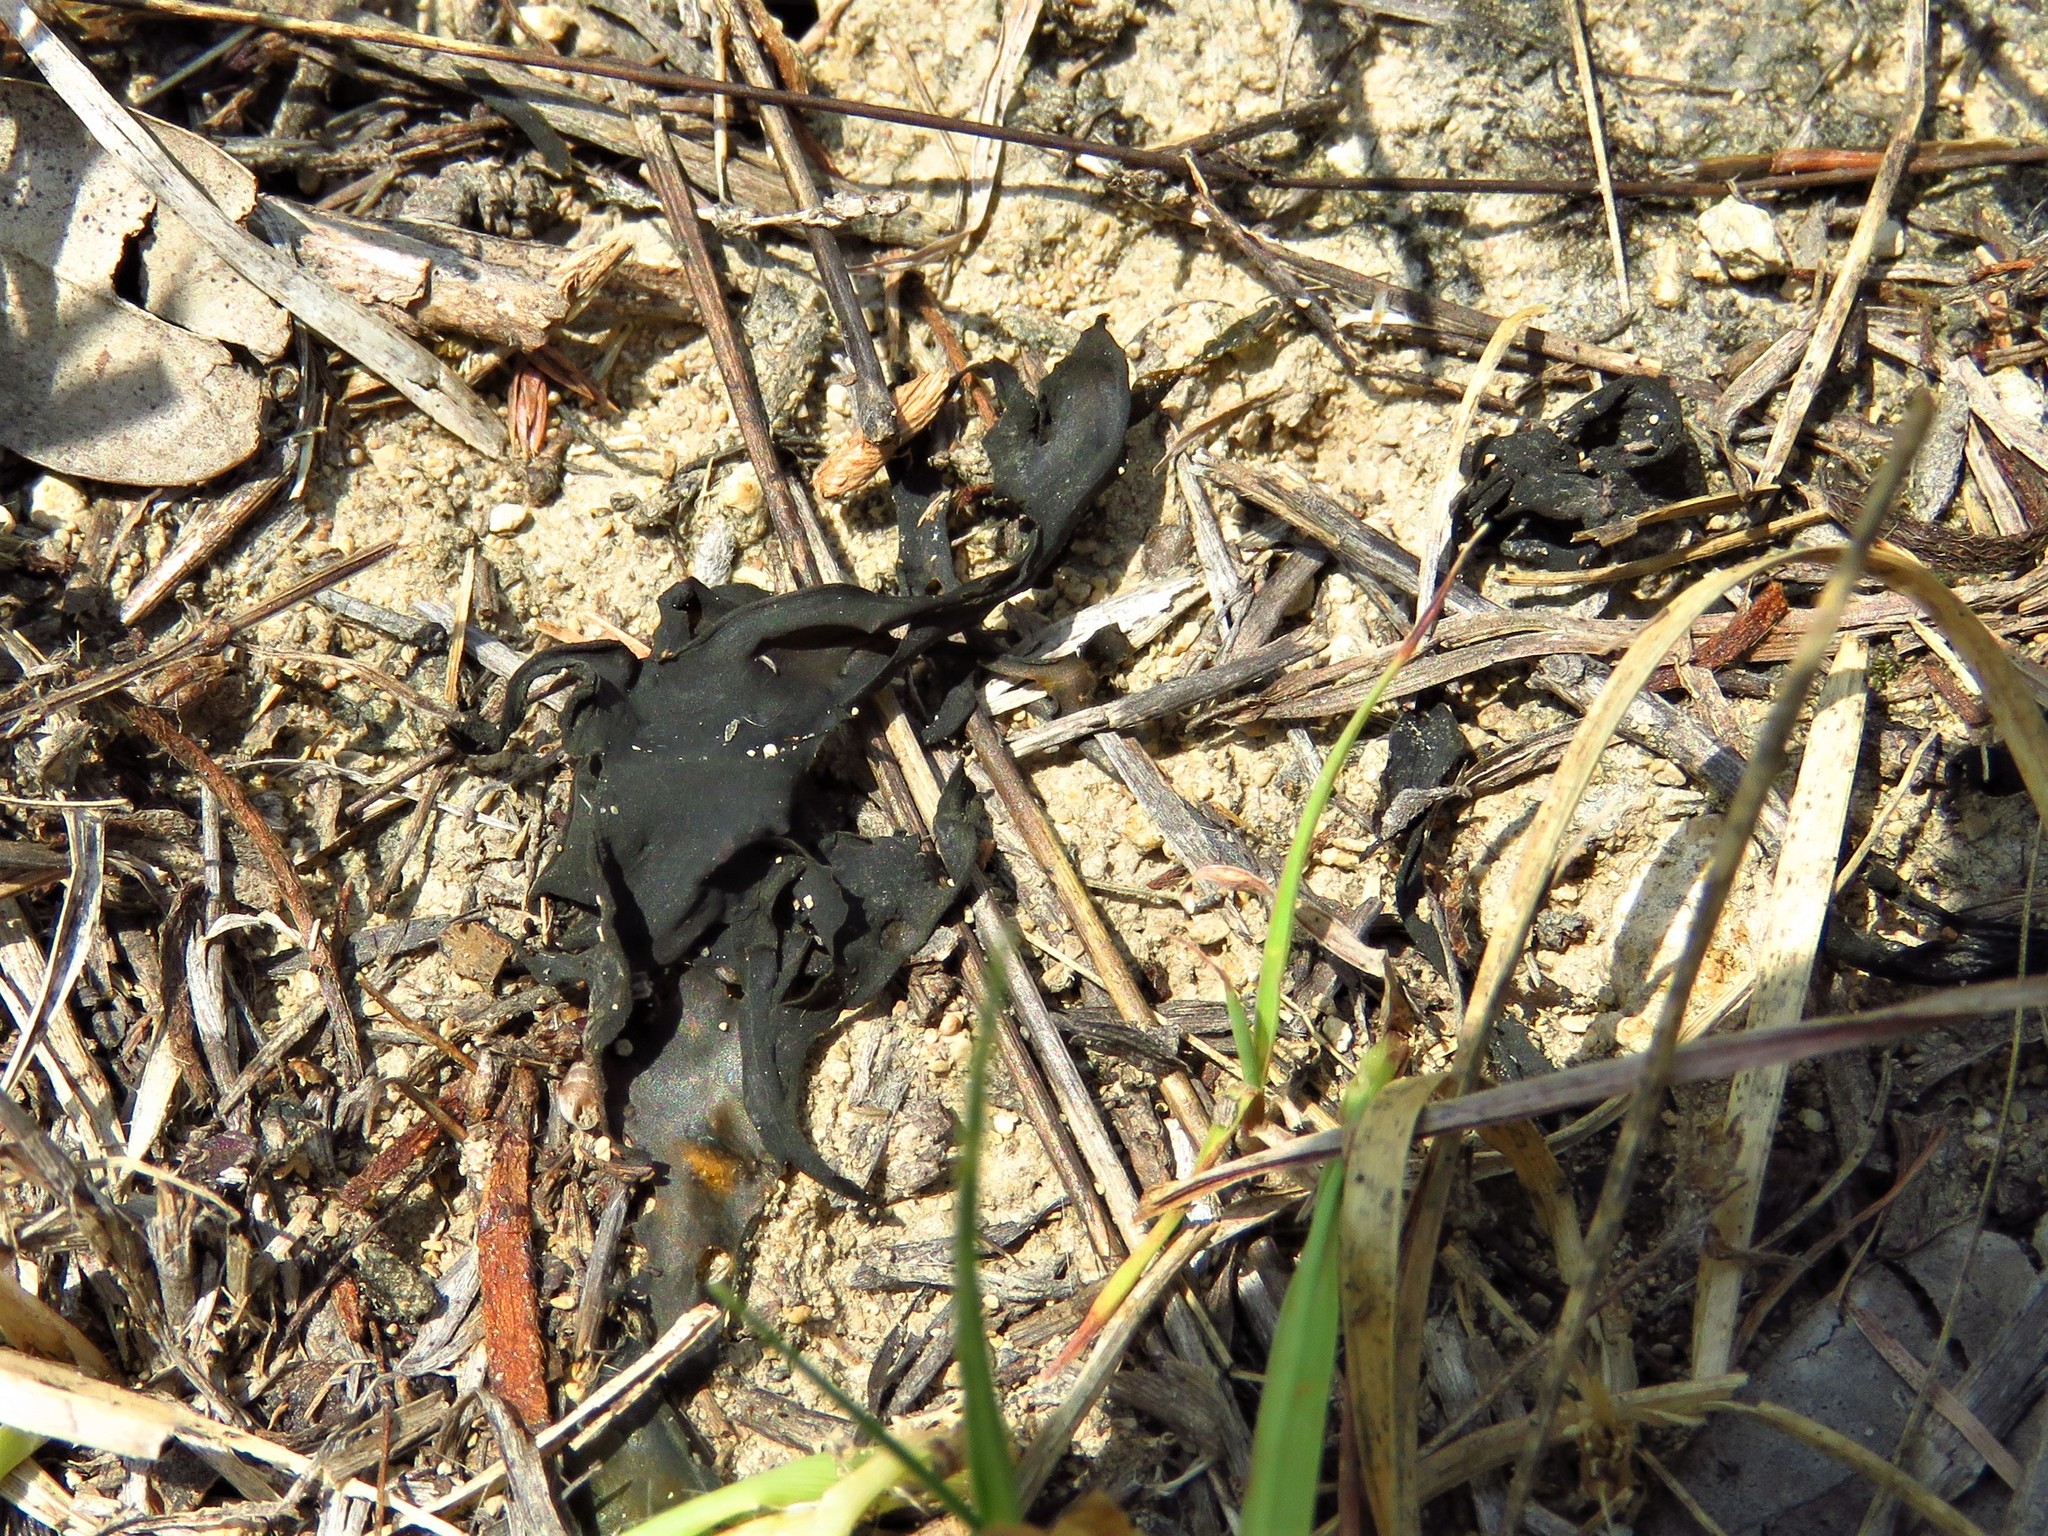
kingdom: Bacteria
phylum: Cyanobacteria
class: Cyanobacteriia
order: Cyanobacteriales
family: Nostocaceae
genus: Nostoc
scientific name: Nostoc commune
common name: Star jelly
